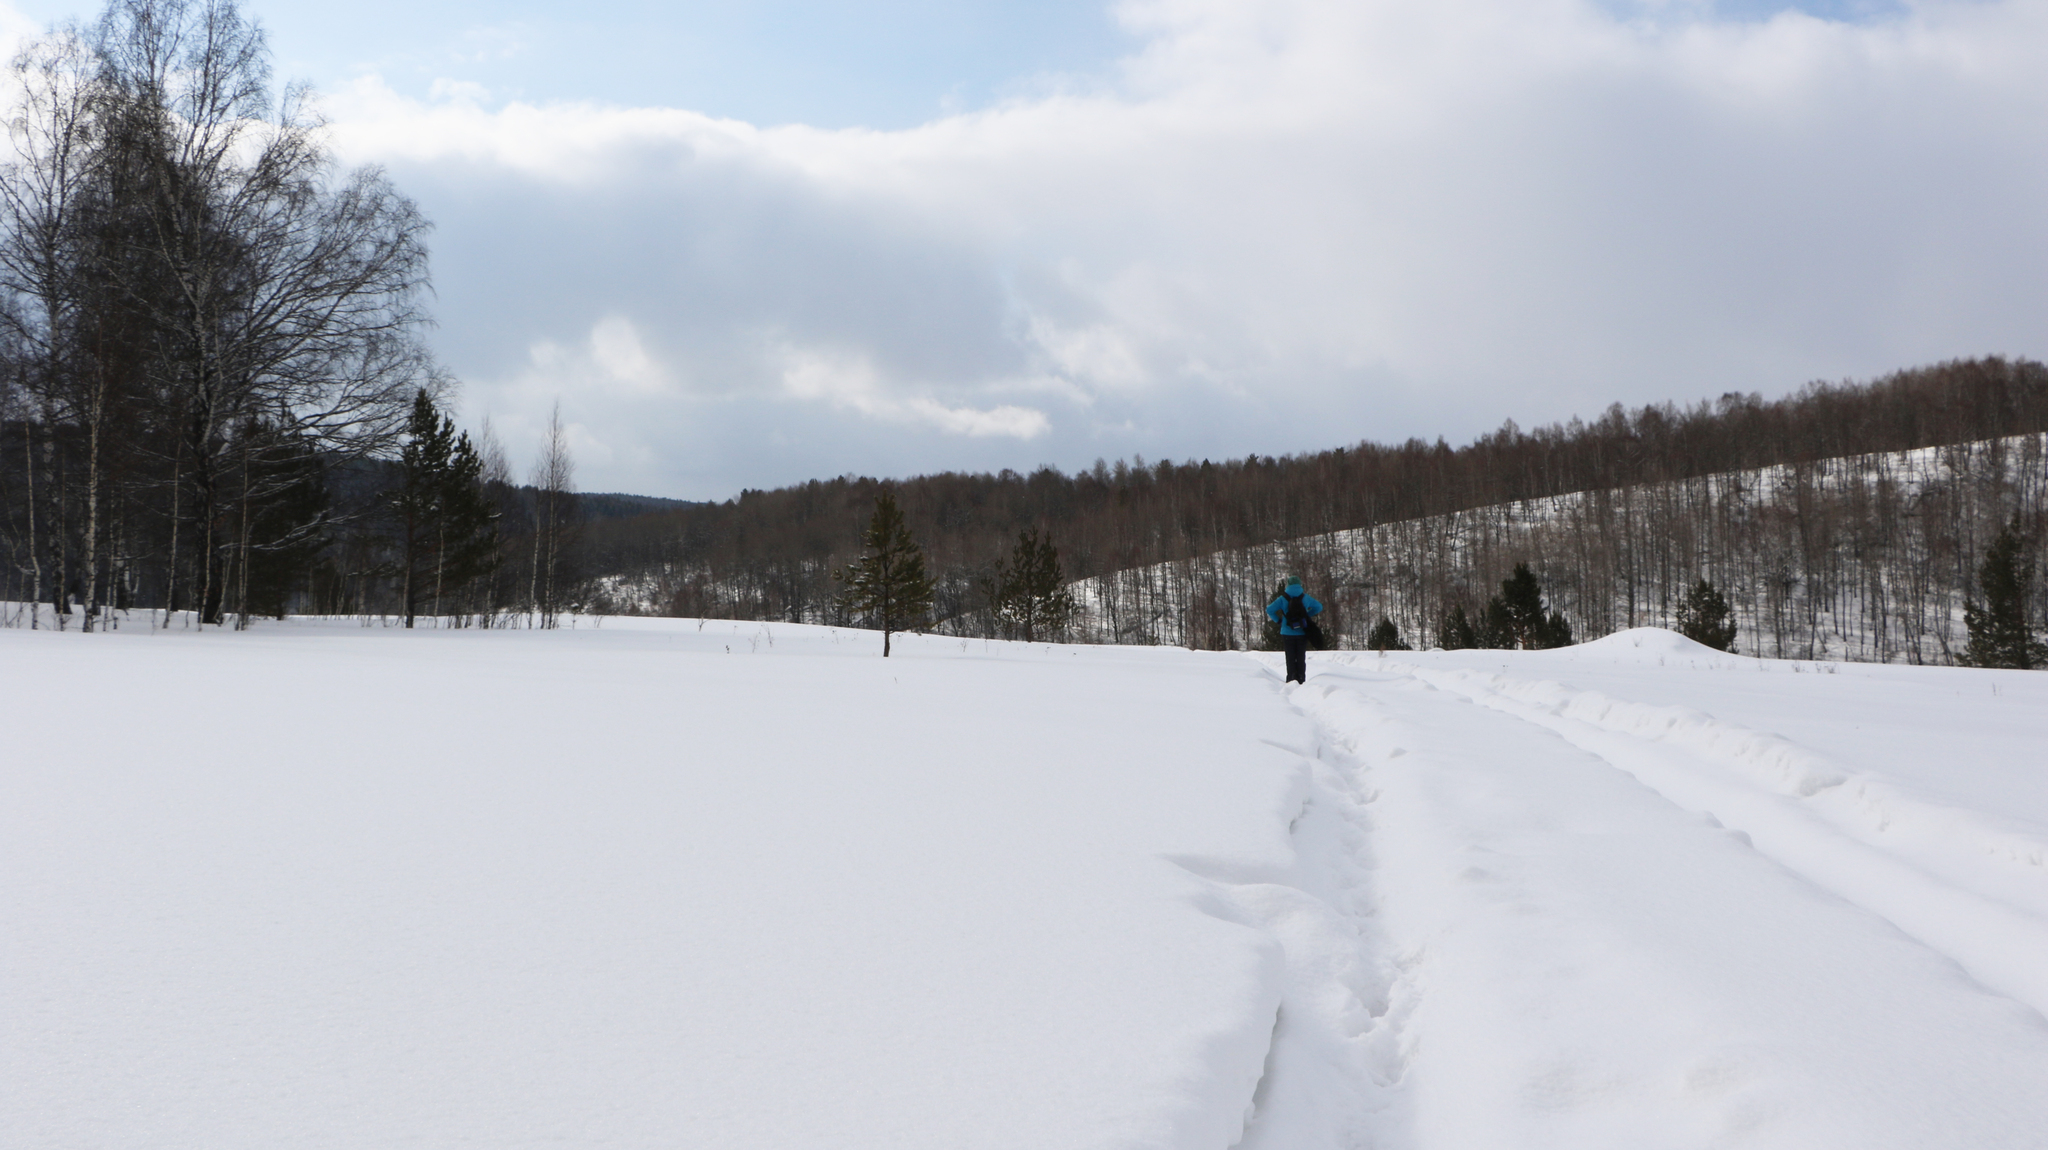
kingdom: Plantae
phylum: Tracheophyta
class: Pinopsida
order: Pinales
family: Pinaceae
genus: Pinus
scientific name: Pinus sylvestris
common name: Scots pine
